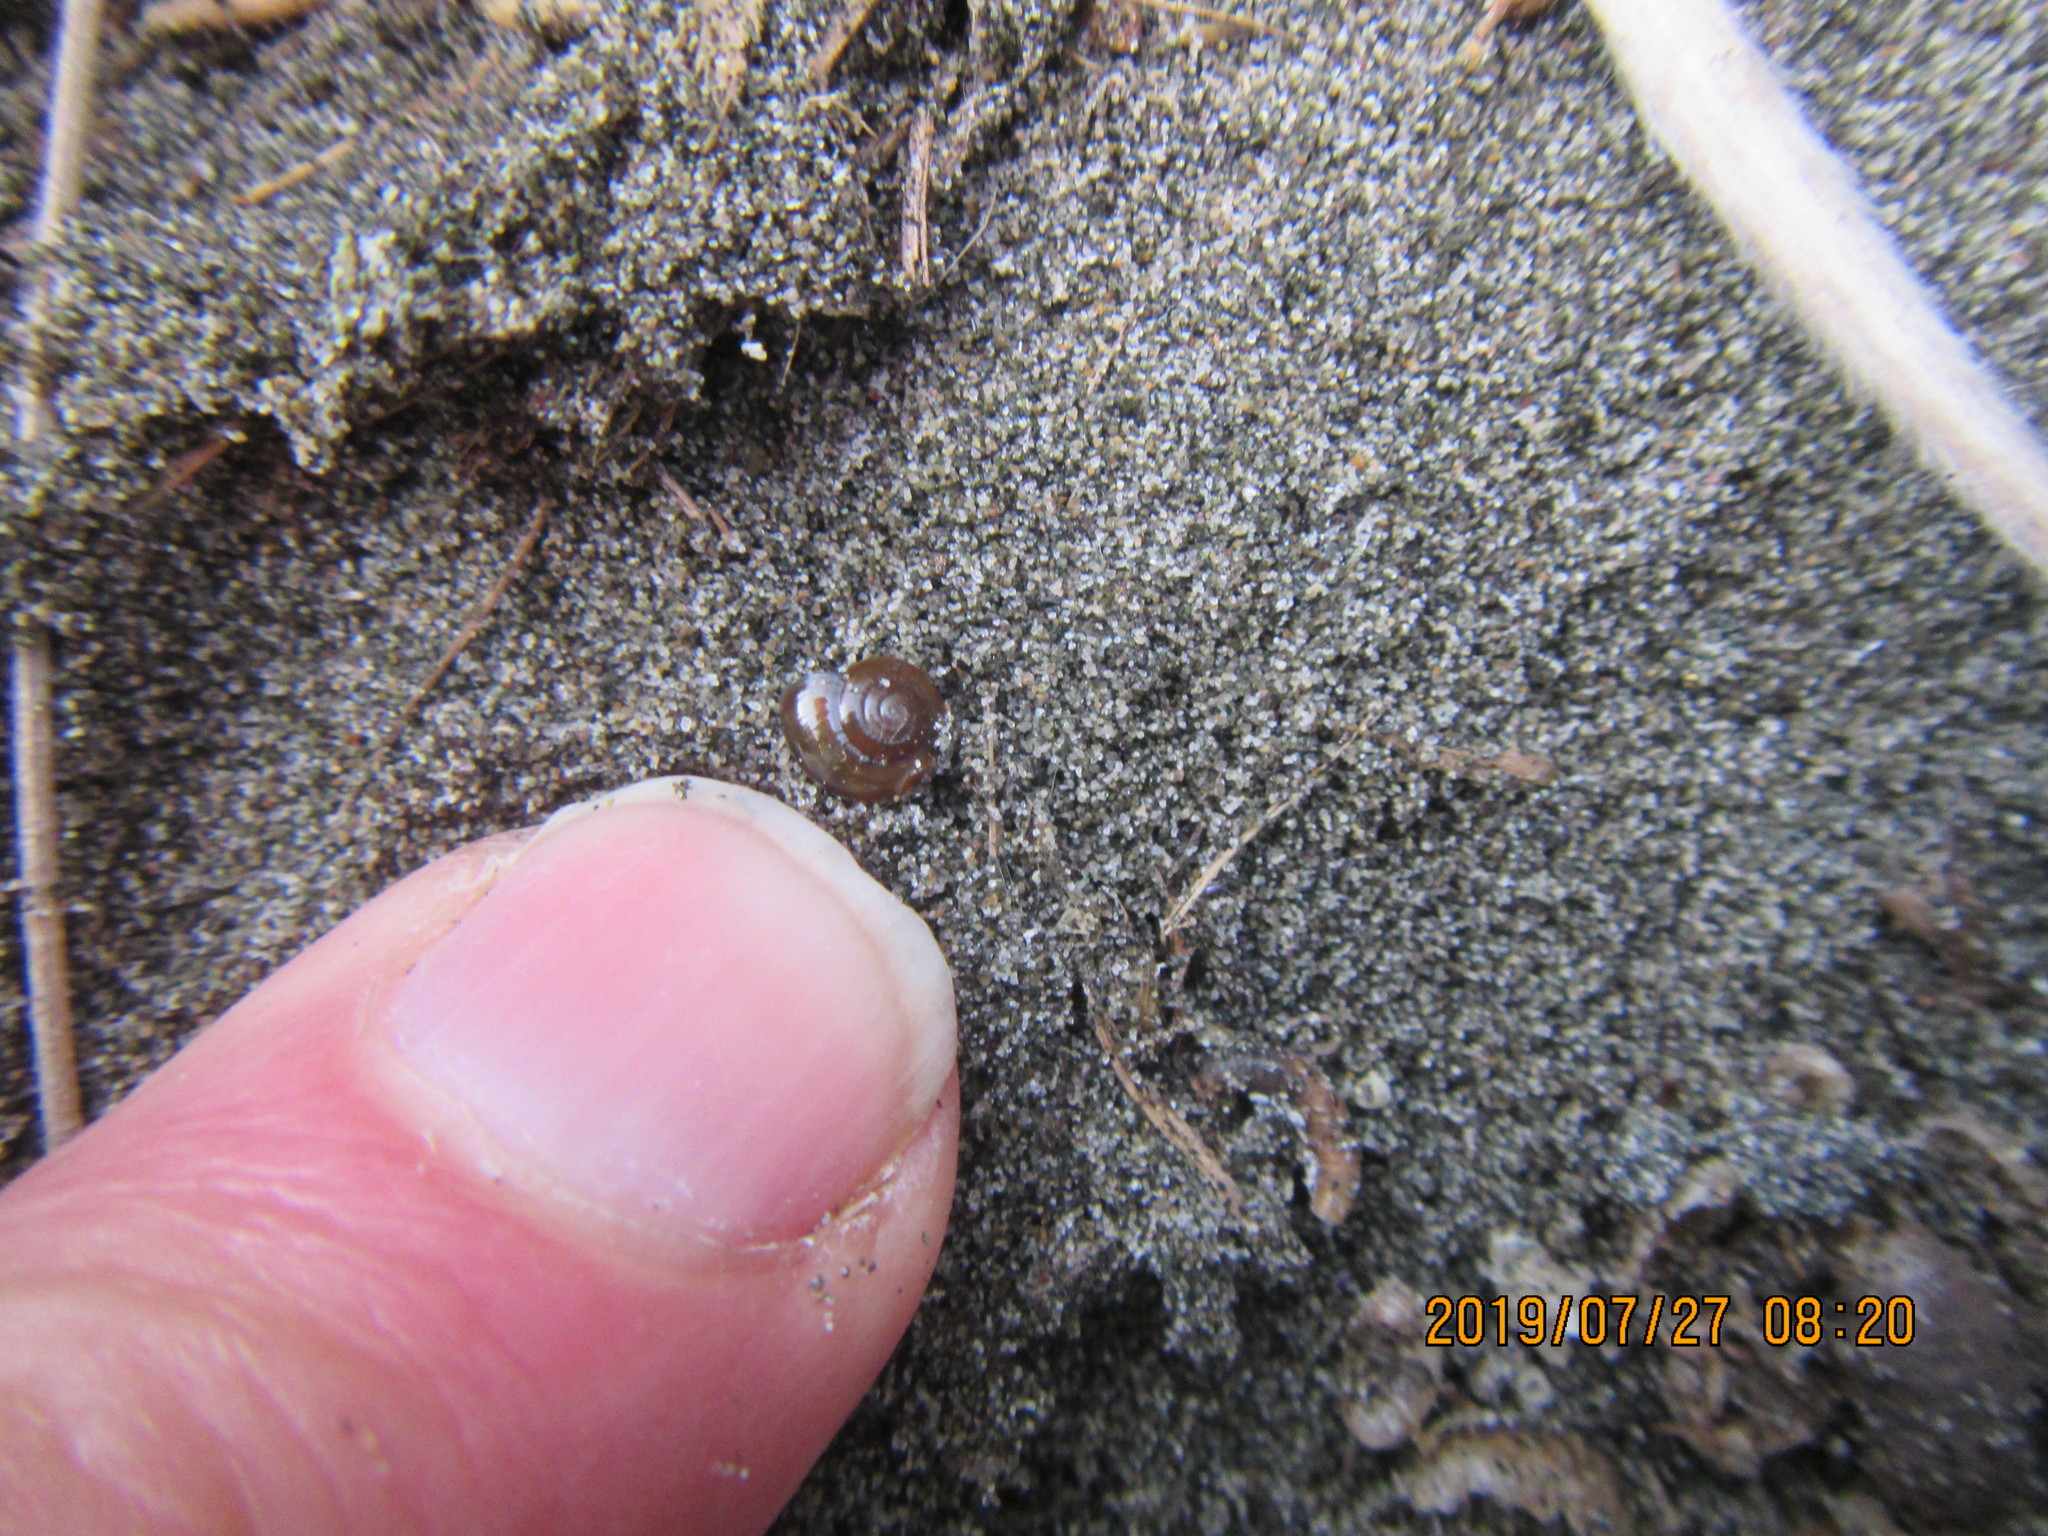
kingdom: Animalia
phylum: Mollusca
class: Gastropoda
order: Stylommatophora
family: Oxychilidae
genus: Oxychilus
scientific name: Oxychilus
